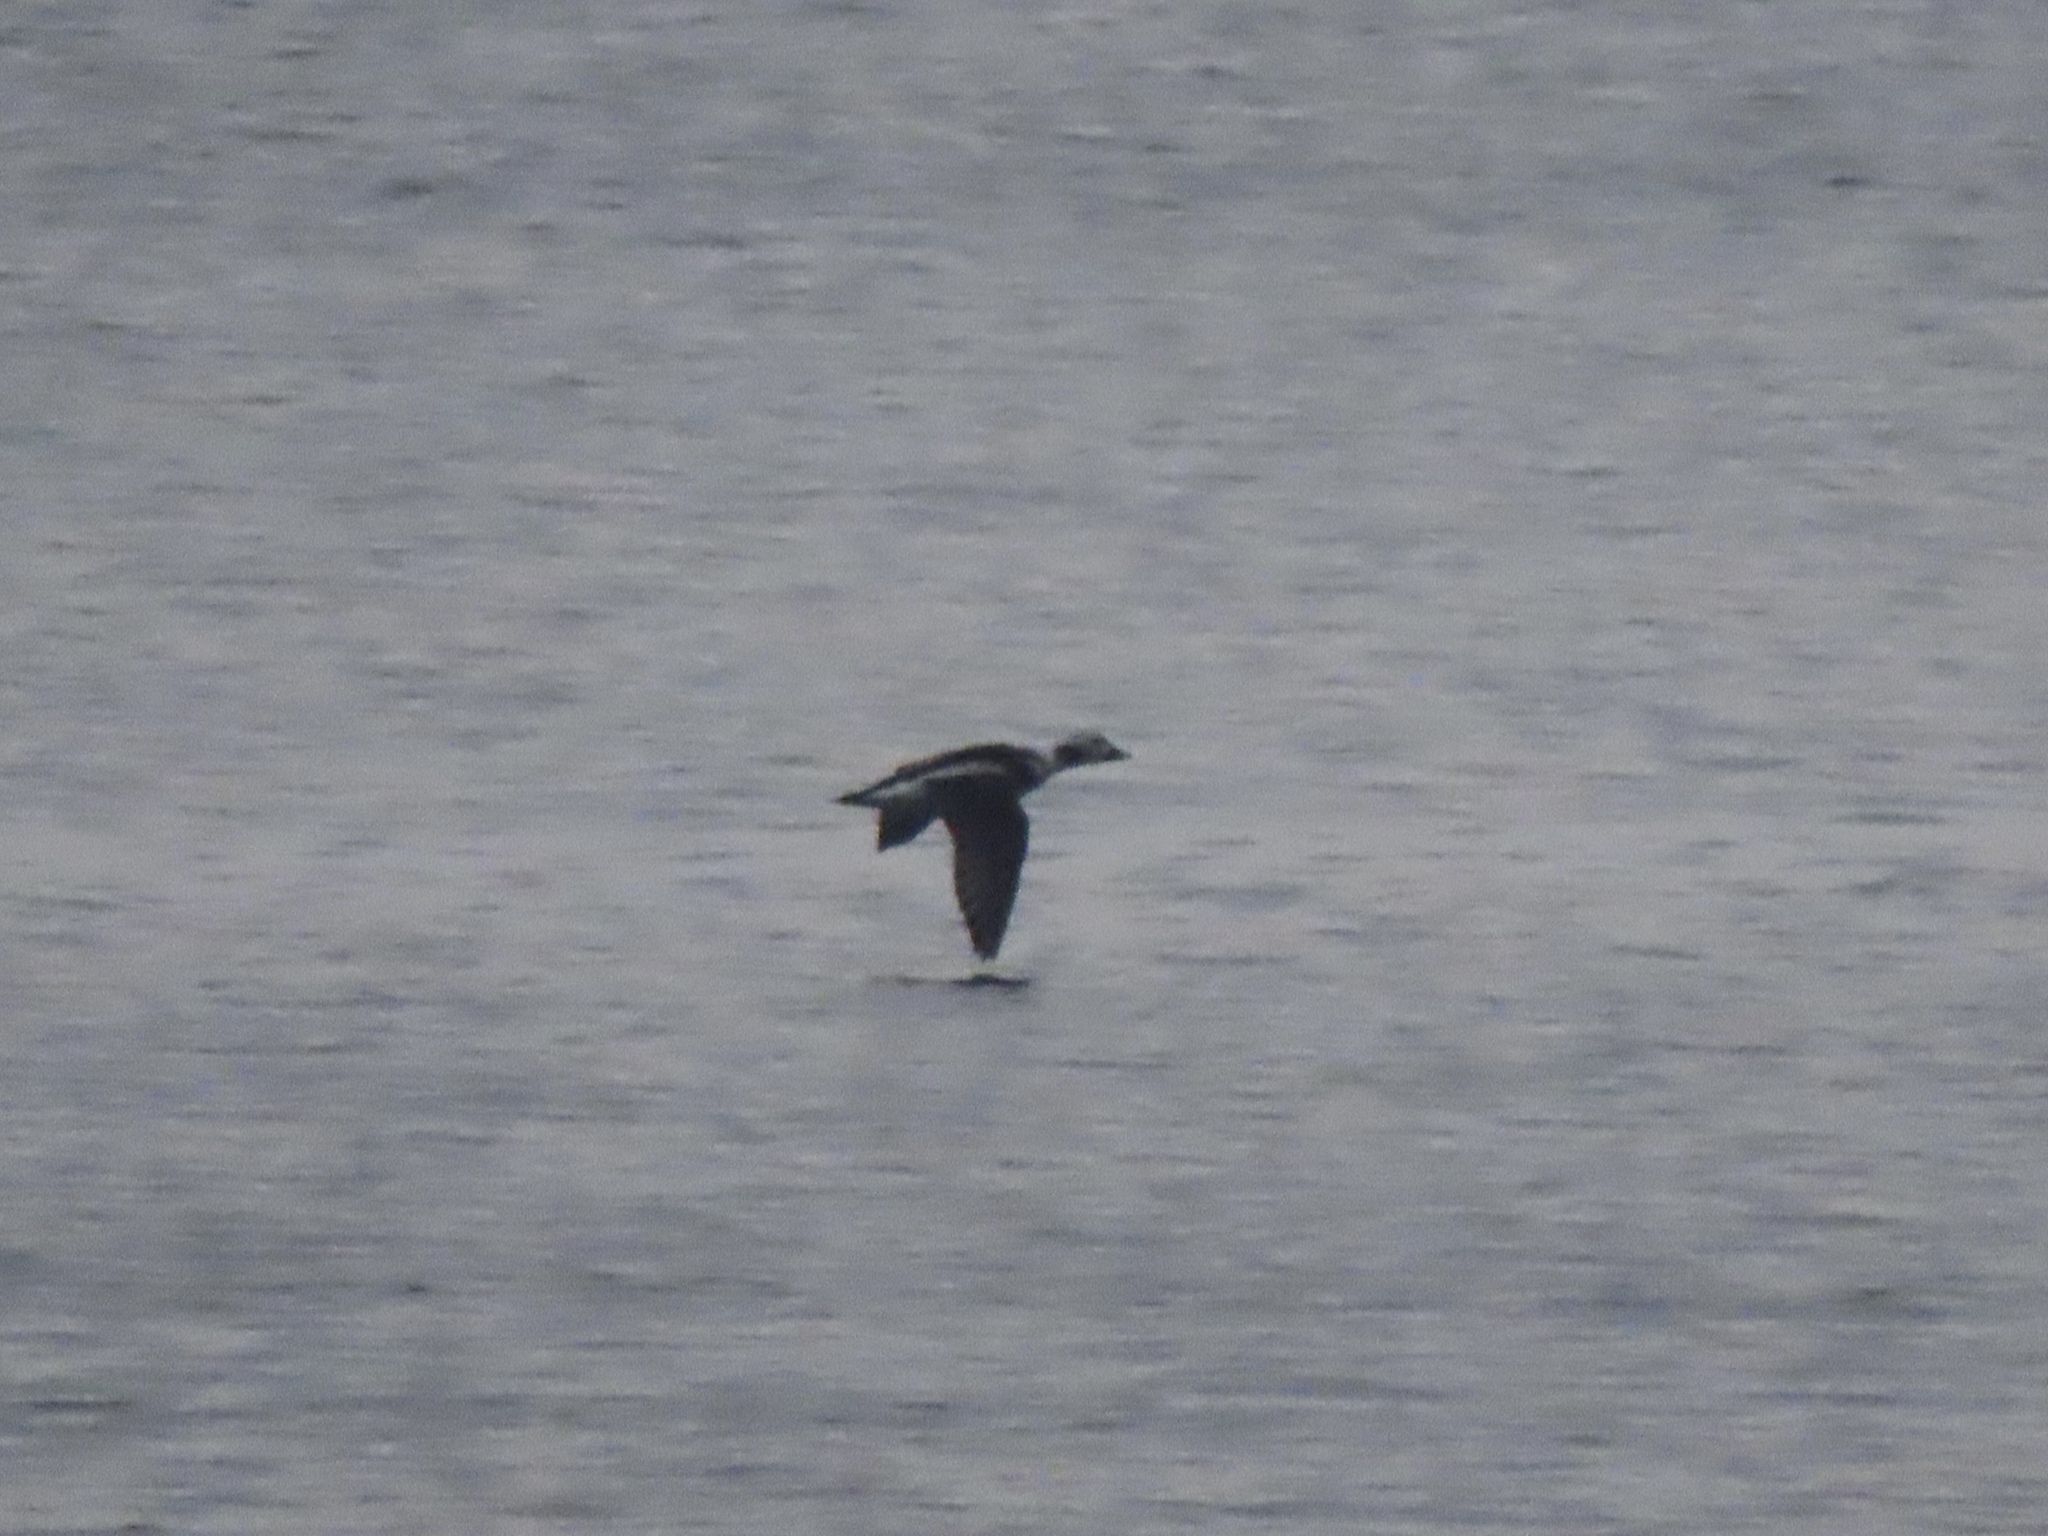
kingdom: Animalia
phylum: Chordata
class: Aves
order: Anseriformes
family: Anatidae
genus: Clangula
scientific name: Clangula hyemalis
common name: Long-tailed duck
